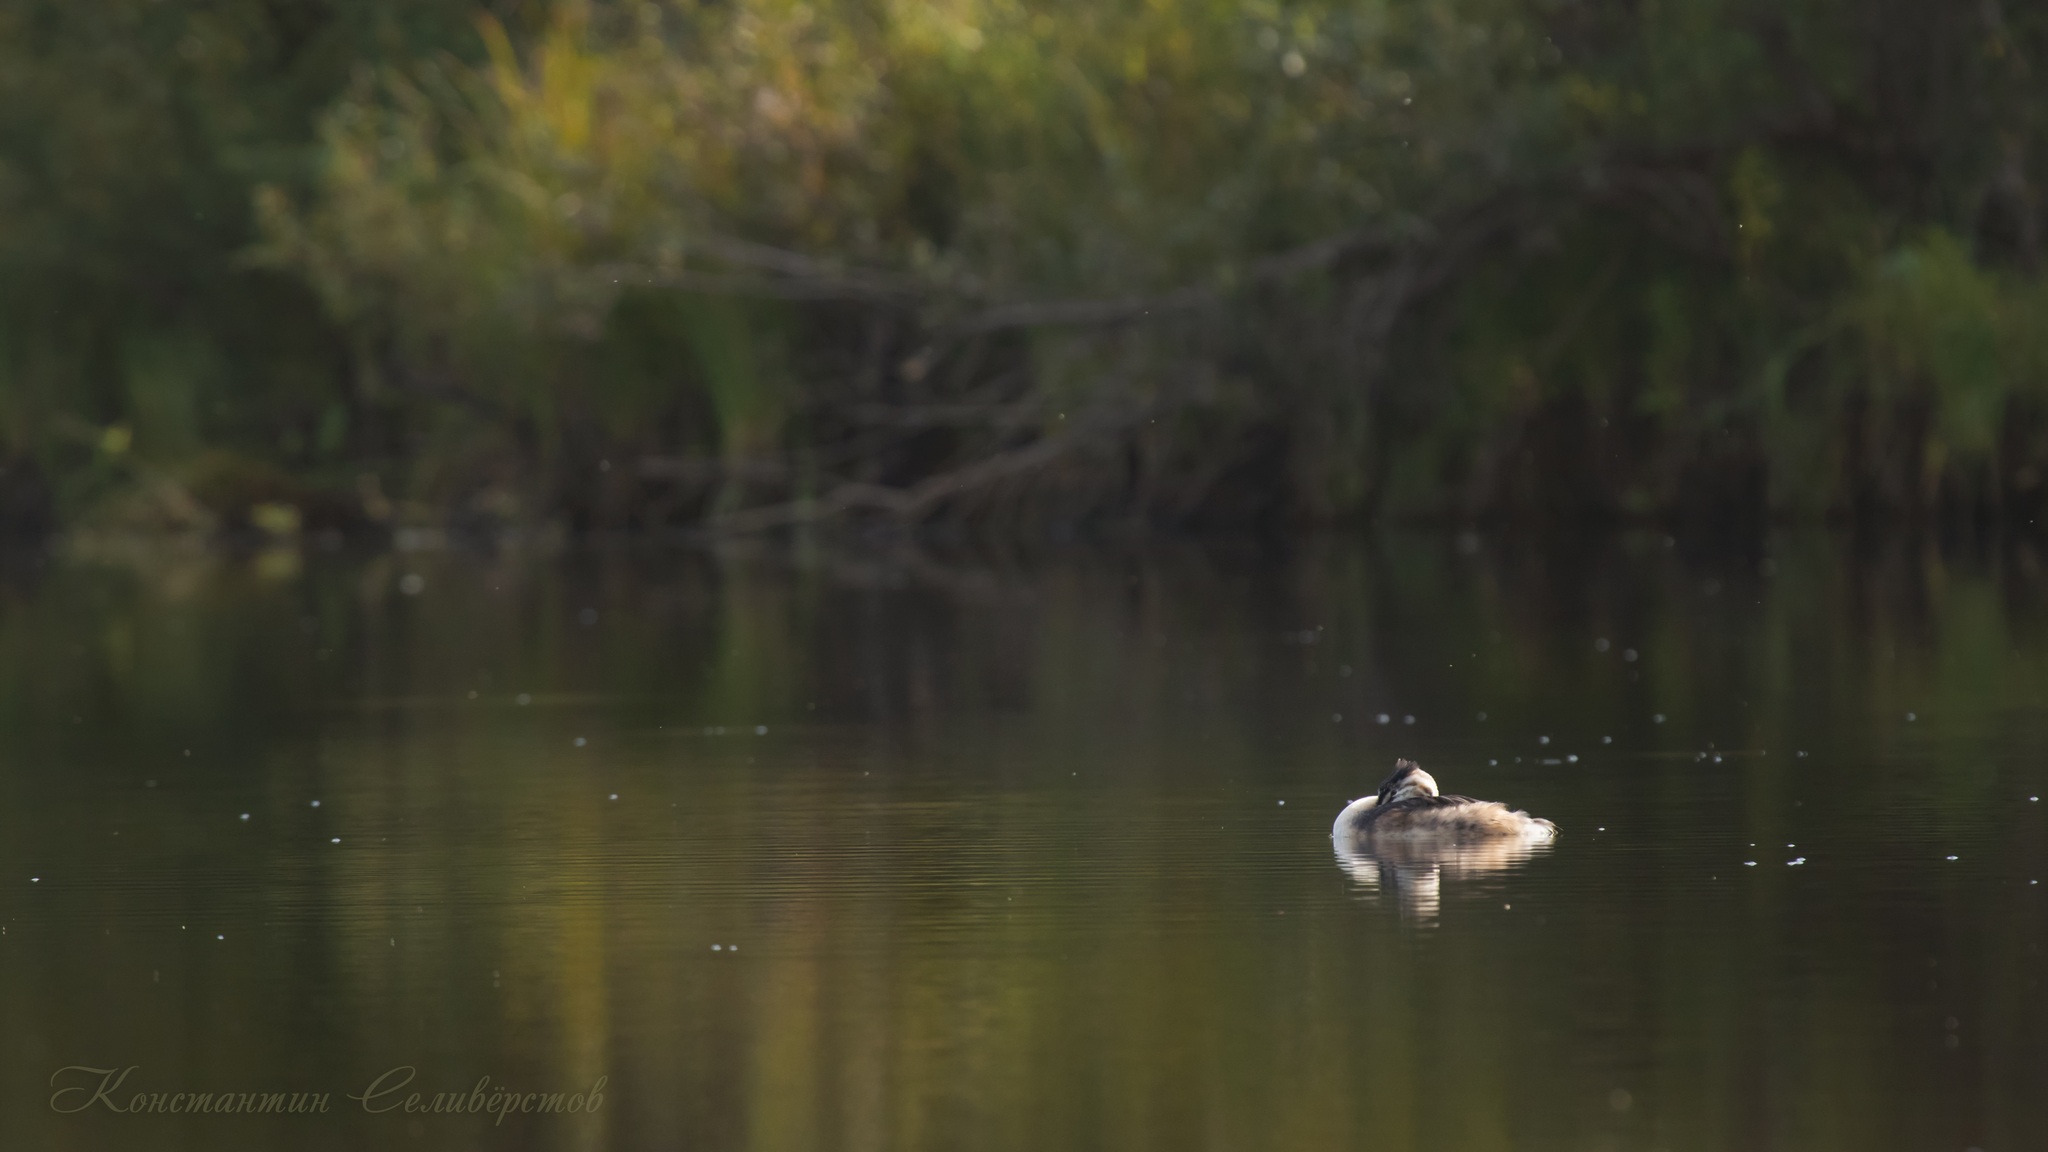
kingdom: Animalia
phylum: Chordata
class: Aves
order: Podicipediformes
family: Podicipedidae
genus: Podiceps
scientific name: Podiceps cristatus
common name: Great crested grebe
